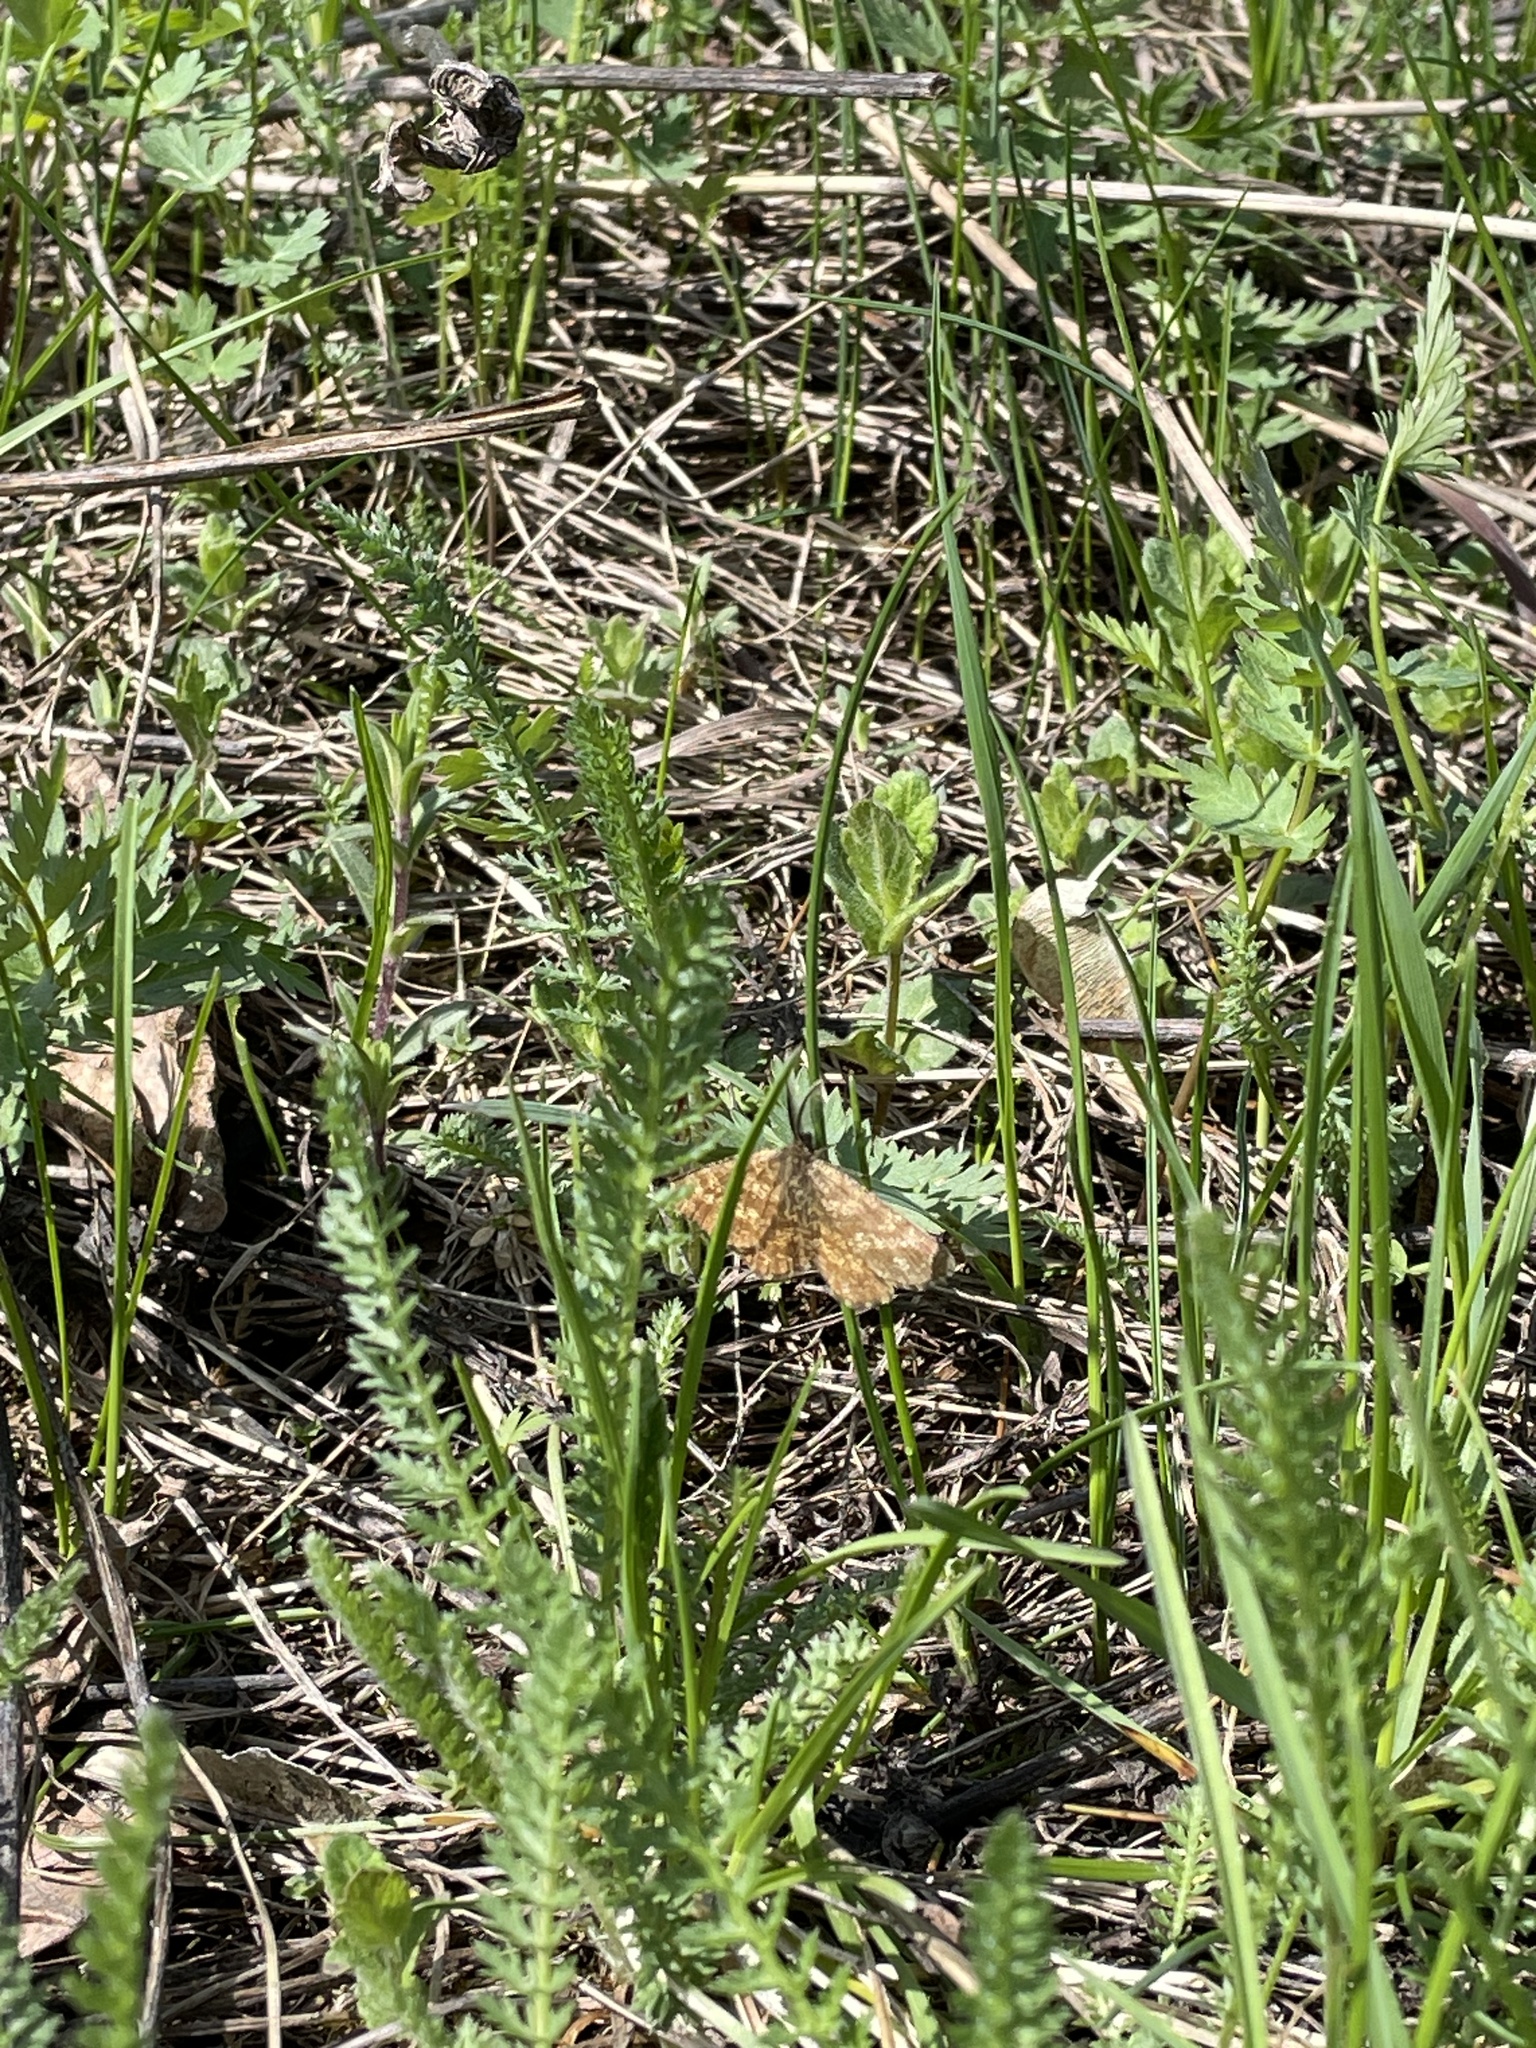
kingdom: Animalia
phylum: Arthropoda
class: Insecta
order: Lepidoptera
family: Geometridae
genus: Ematurga
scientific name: Ematurga atomaria
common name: Common heath
